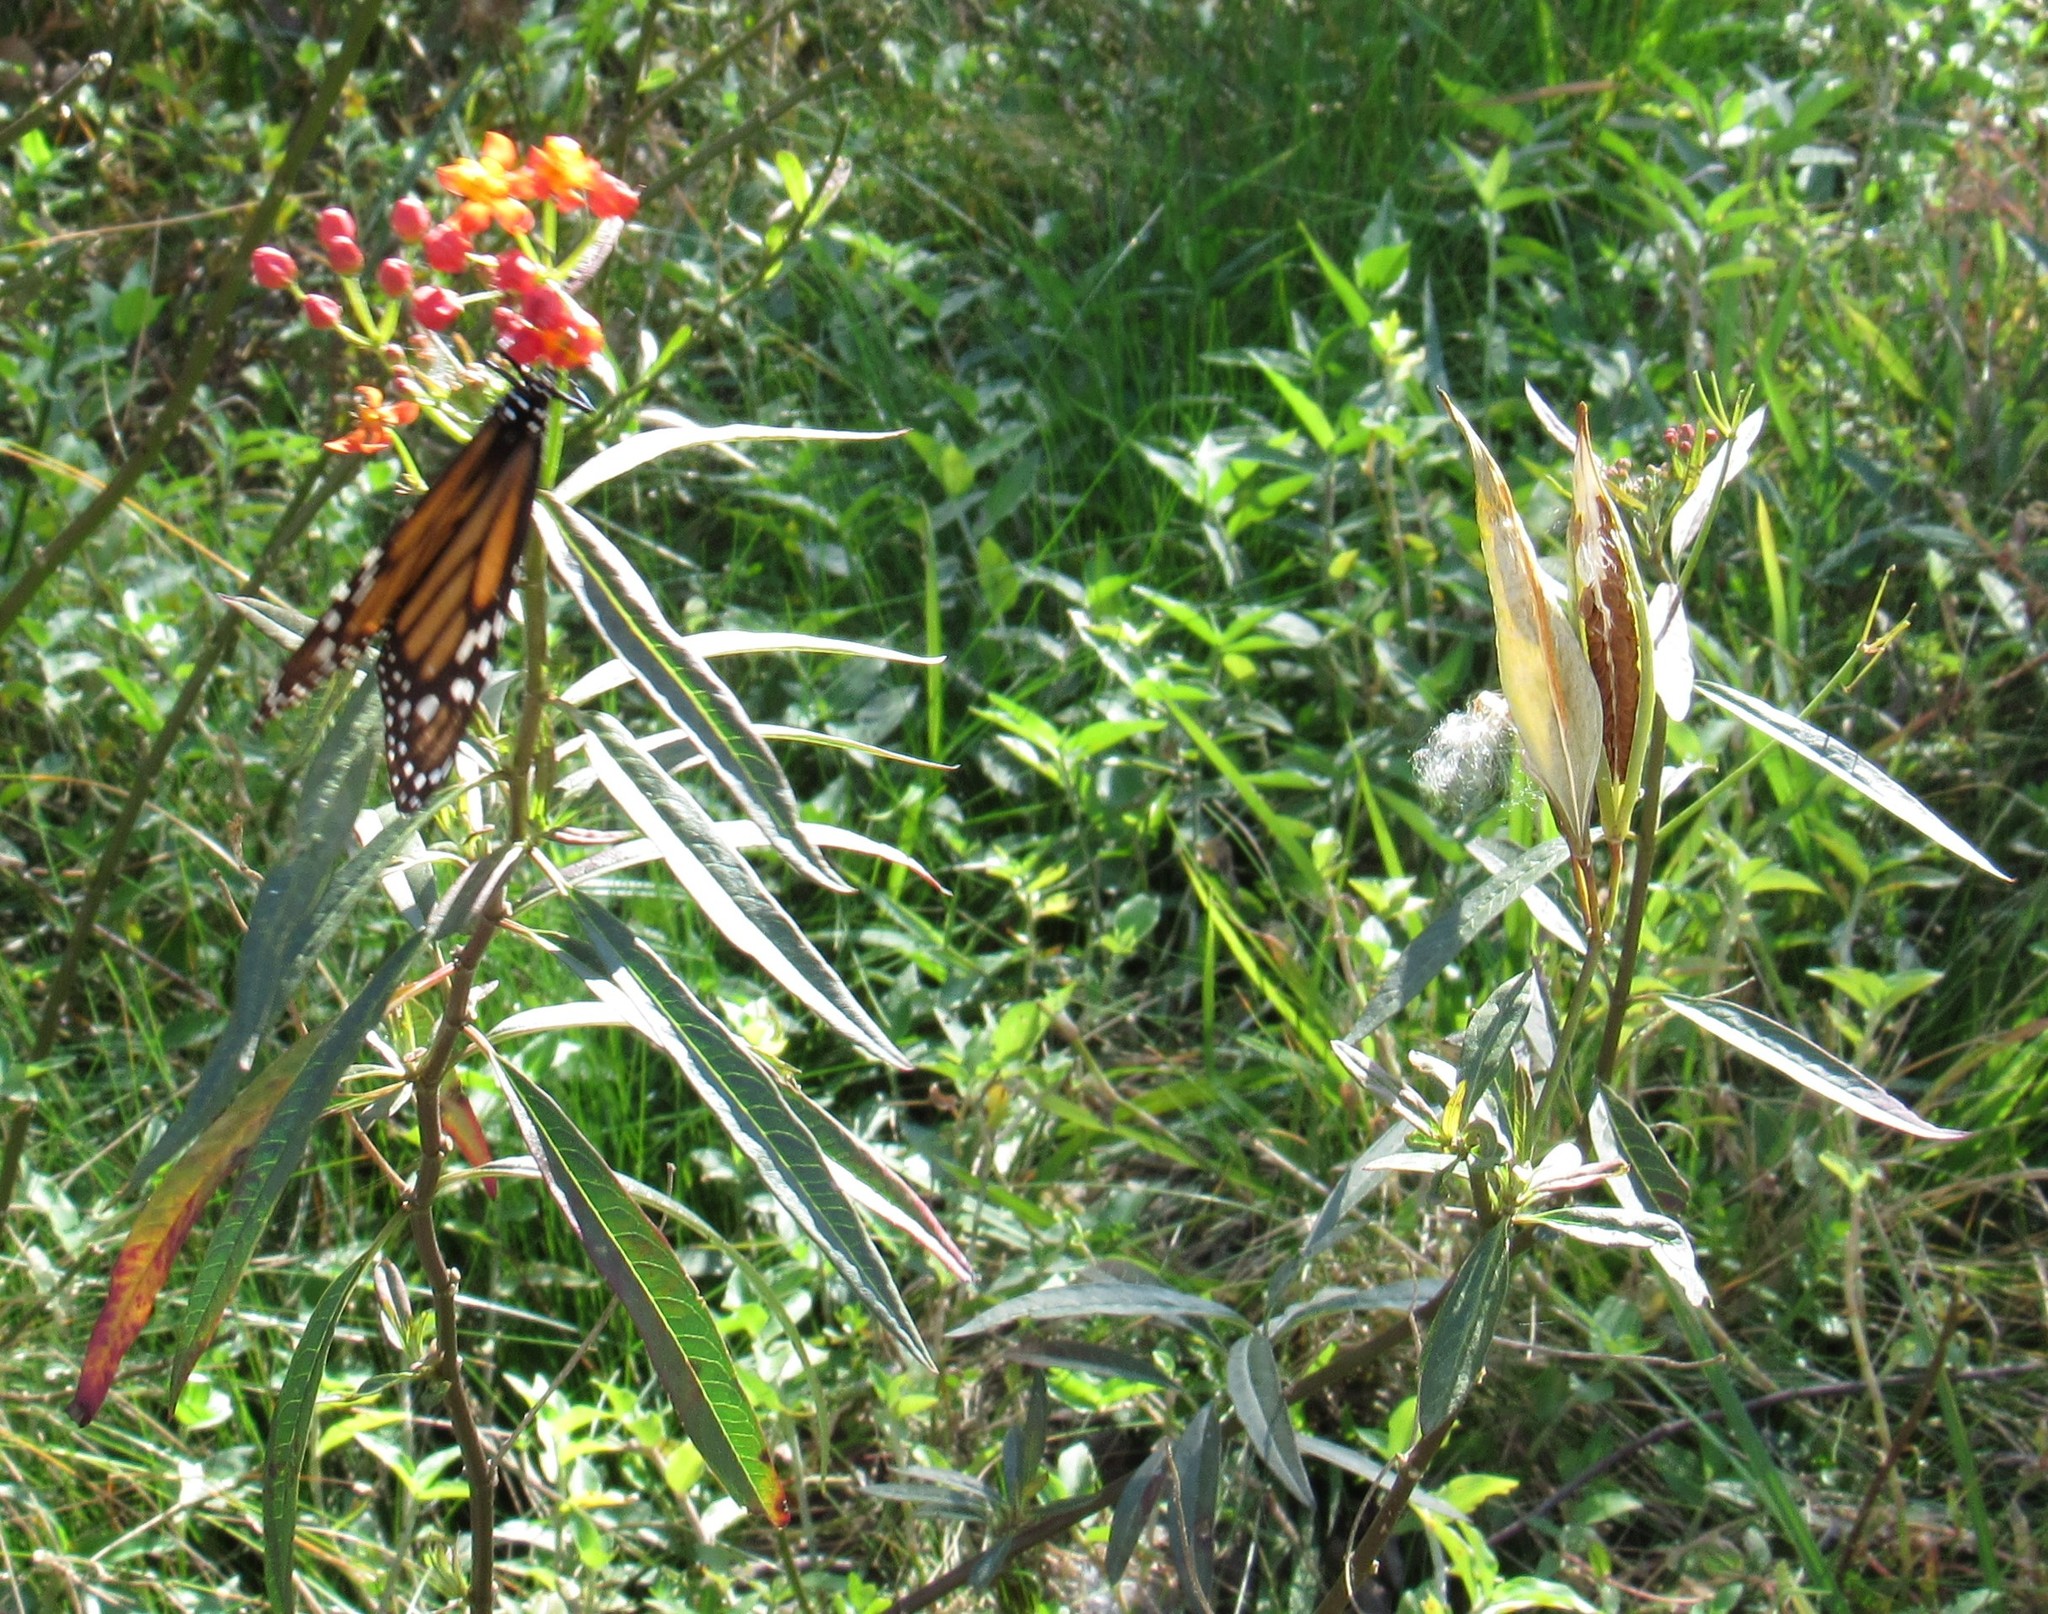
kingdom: Animalia
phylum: Arthropoda
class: Insecta
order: Lepidoptera
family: Nymphalidae
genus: Danaus
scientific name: Danaus plexippus
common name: Monarch
